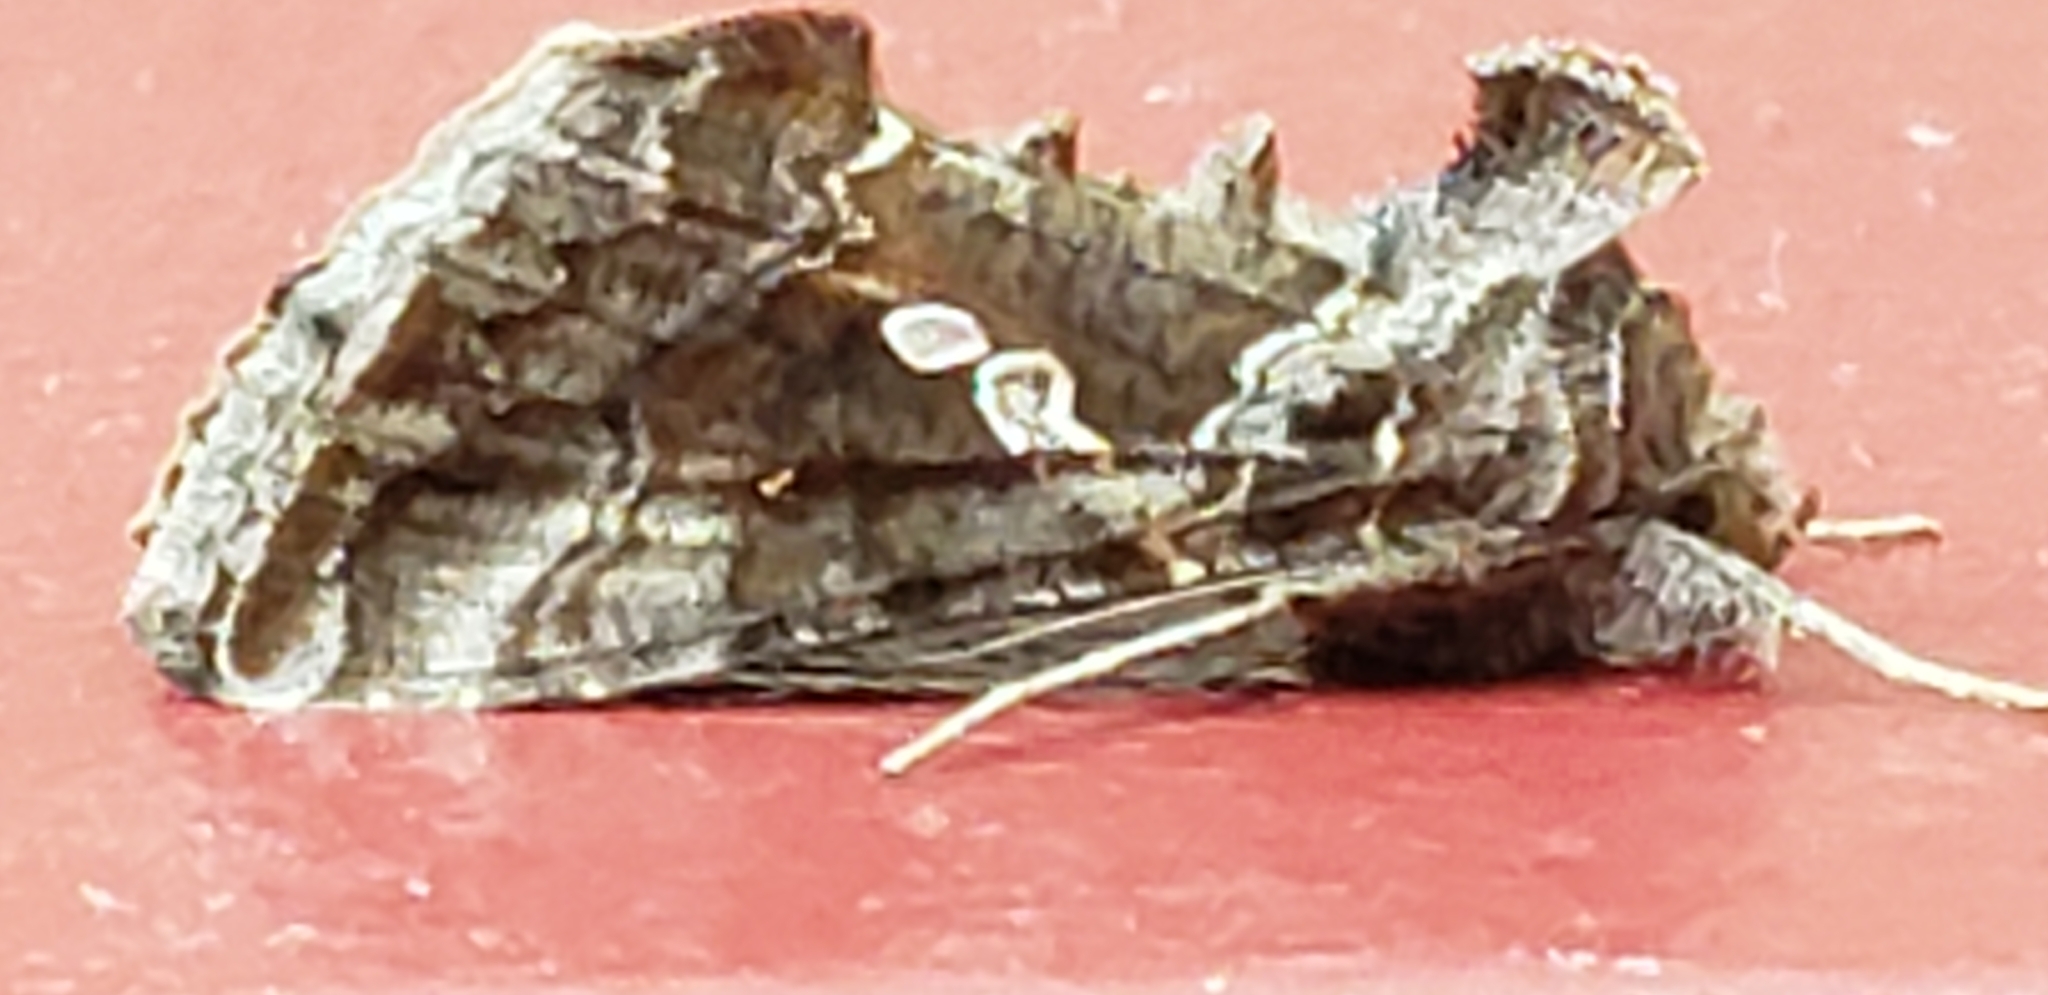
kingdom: Animalia
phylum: Arthropoda
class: Insecta
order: Lepidoptera
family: Noctuidae
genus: Chrysodeixis
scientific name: Chrysodeixis includens
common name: Cutworm moth
